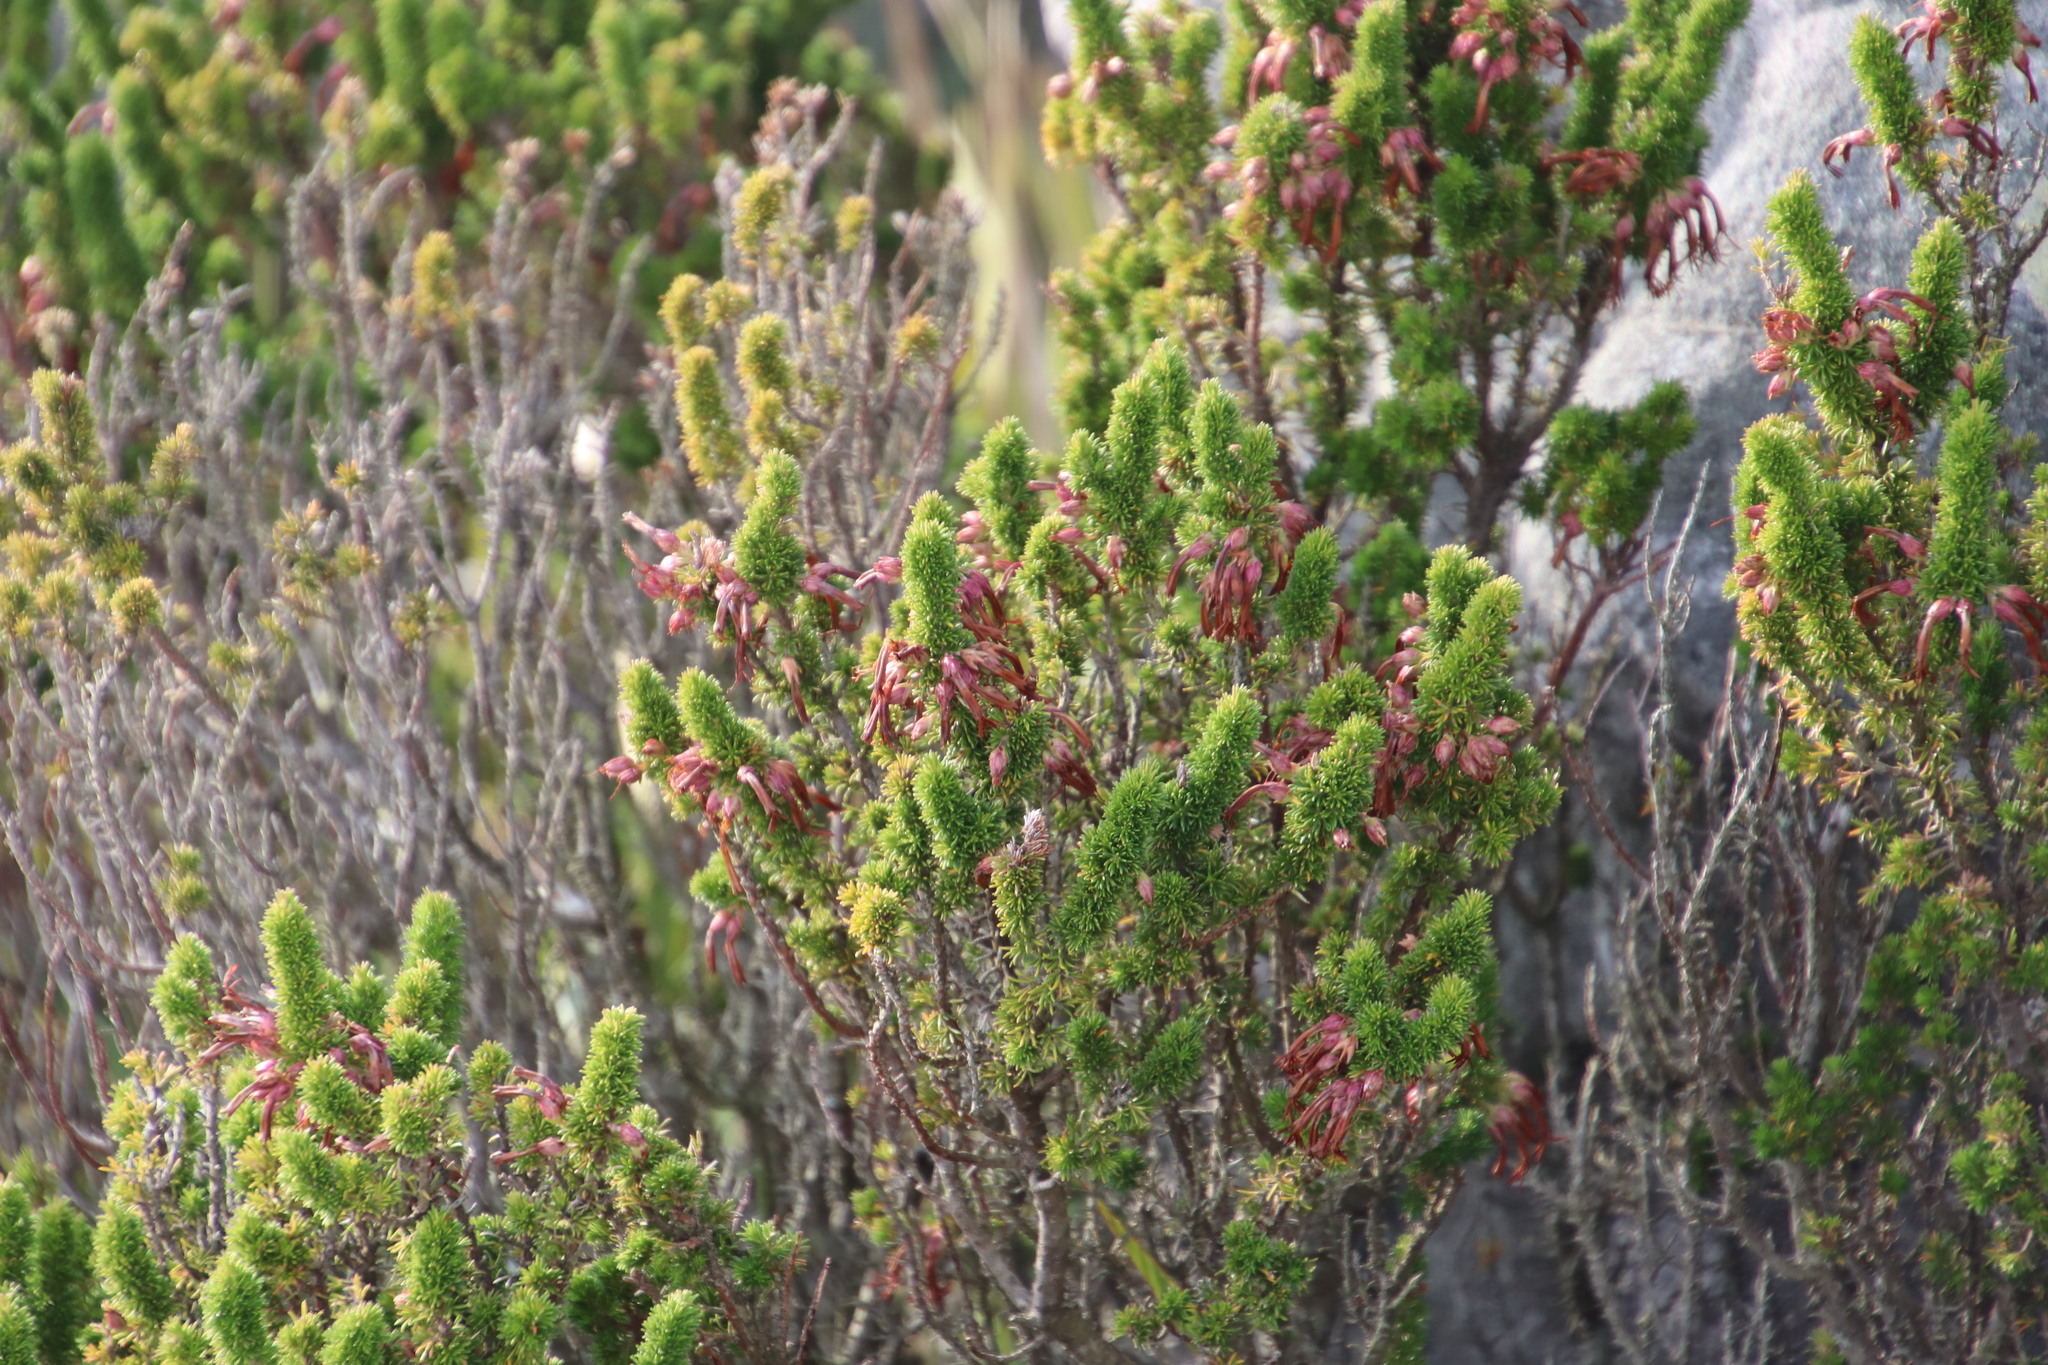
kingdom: Plantae
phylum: Tracheophyta
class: Magnoliopsida
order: Ericales
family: Ericaceae
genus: Erica
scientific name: Erica coccinea
